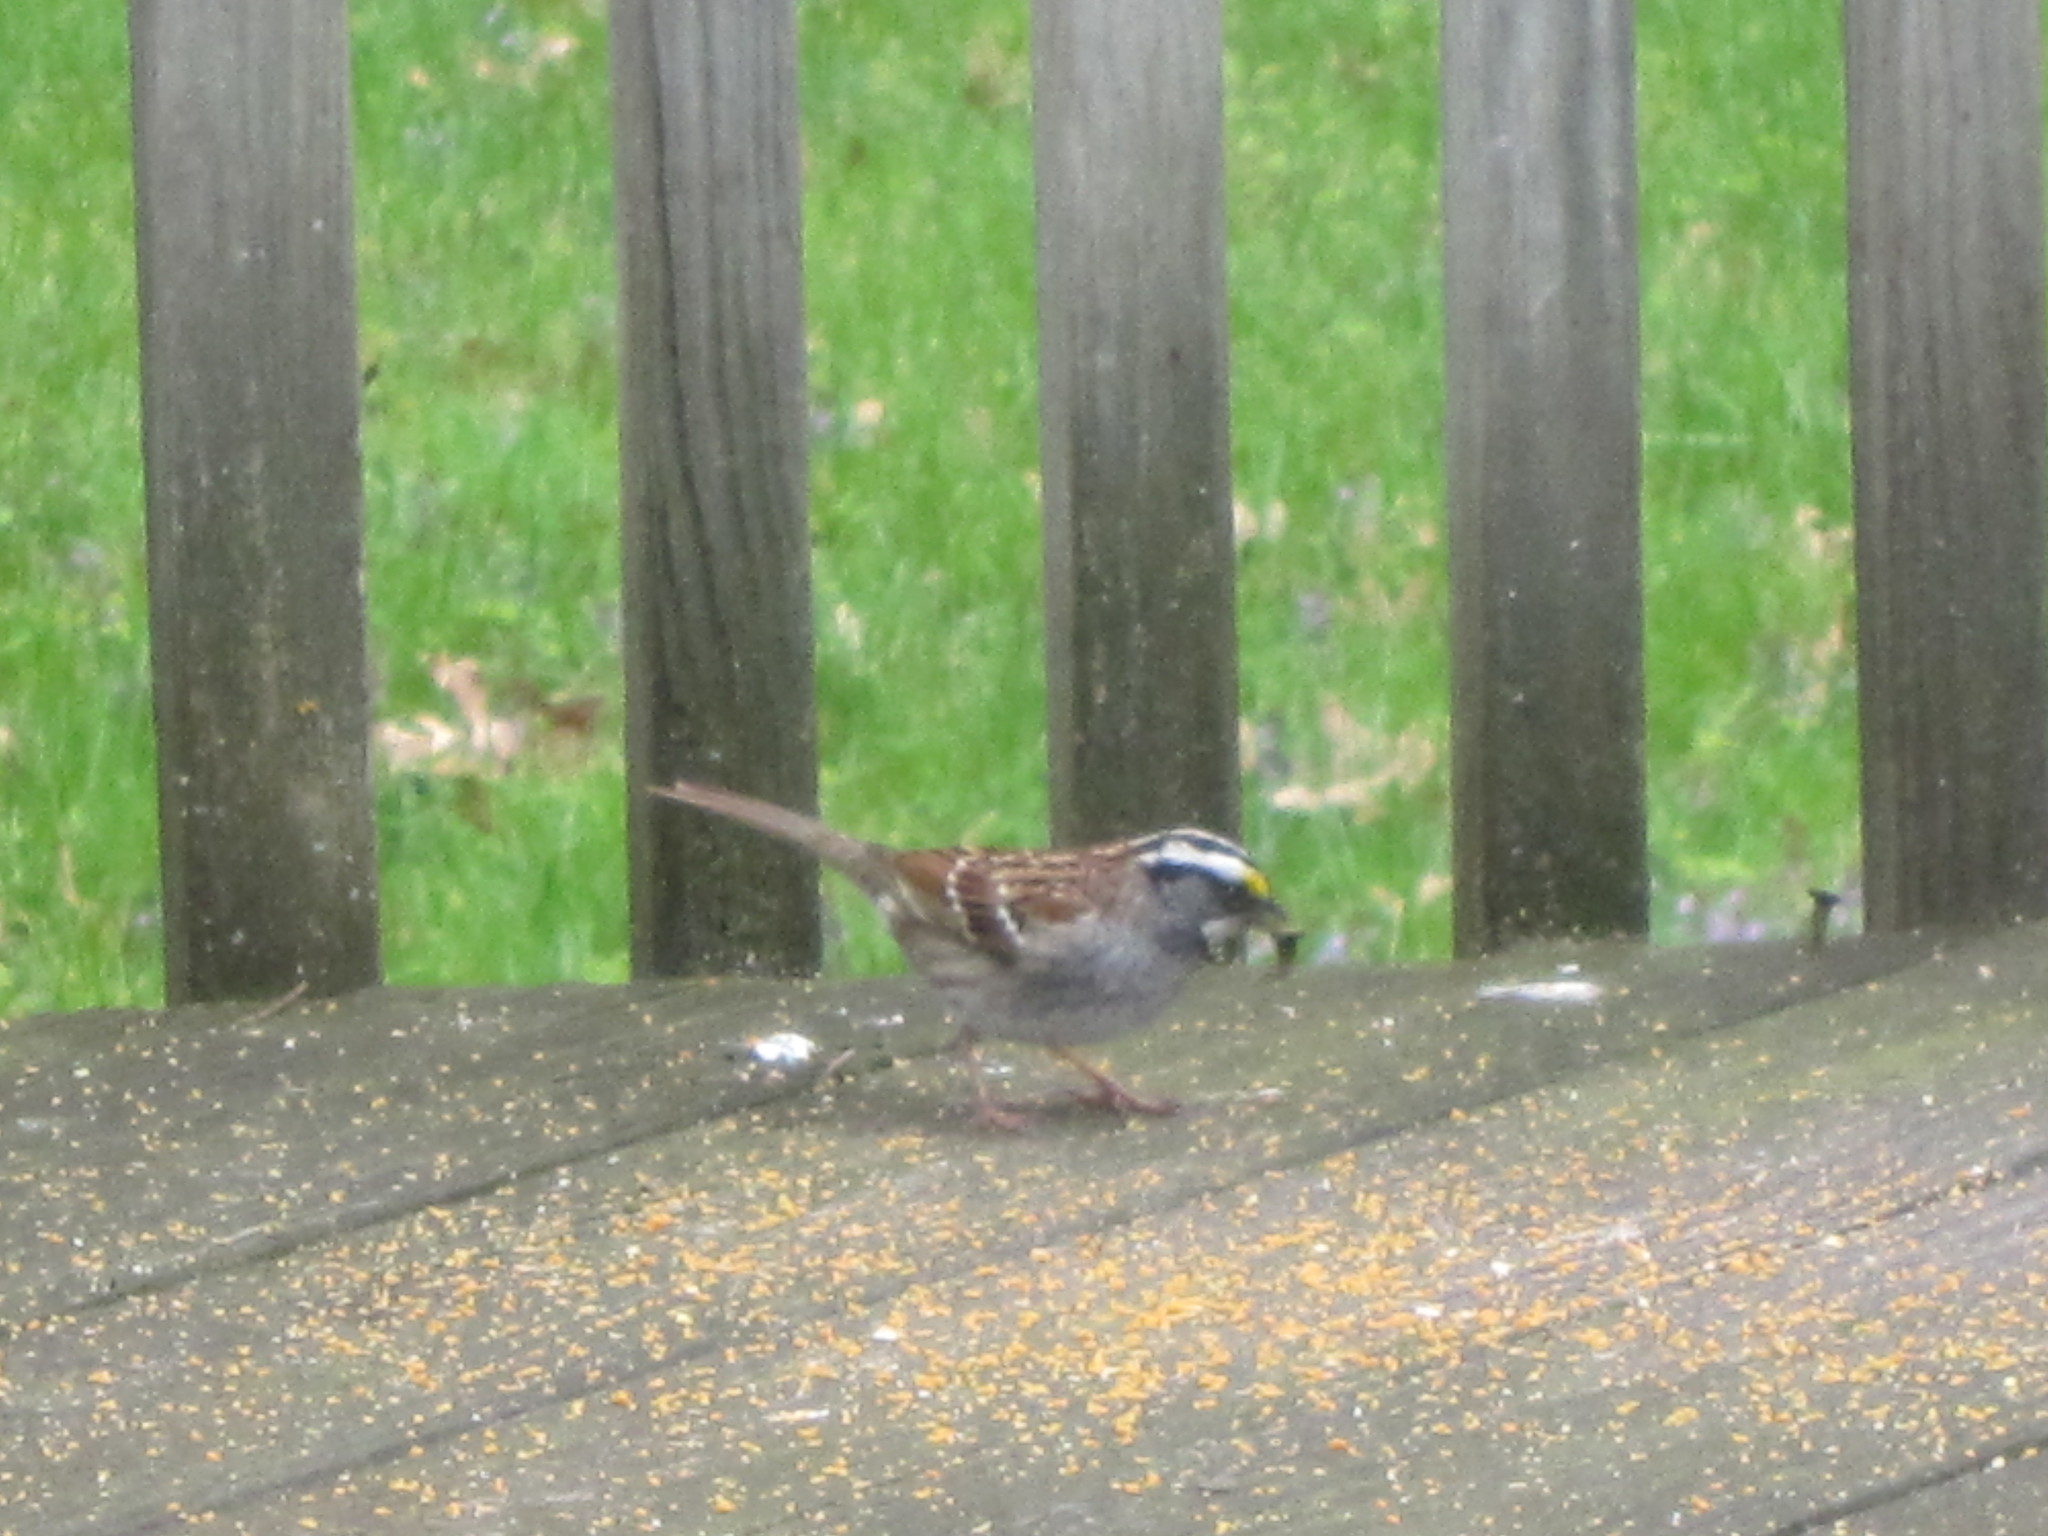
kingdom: Animalia
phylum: Chordata
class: Aves
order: Passeriformes
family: Passerellidae
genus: Zonotrichia
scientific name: Zonotrichia albicollis
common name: White-throated sparrow
